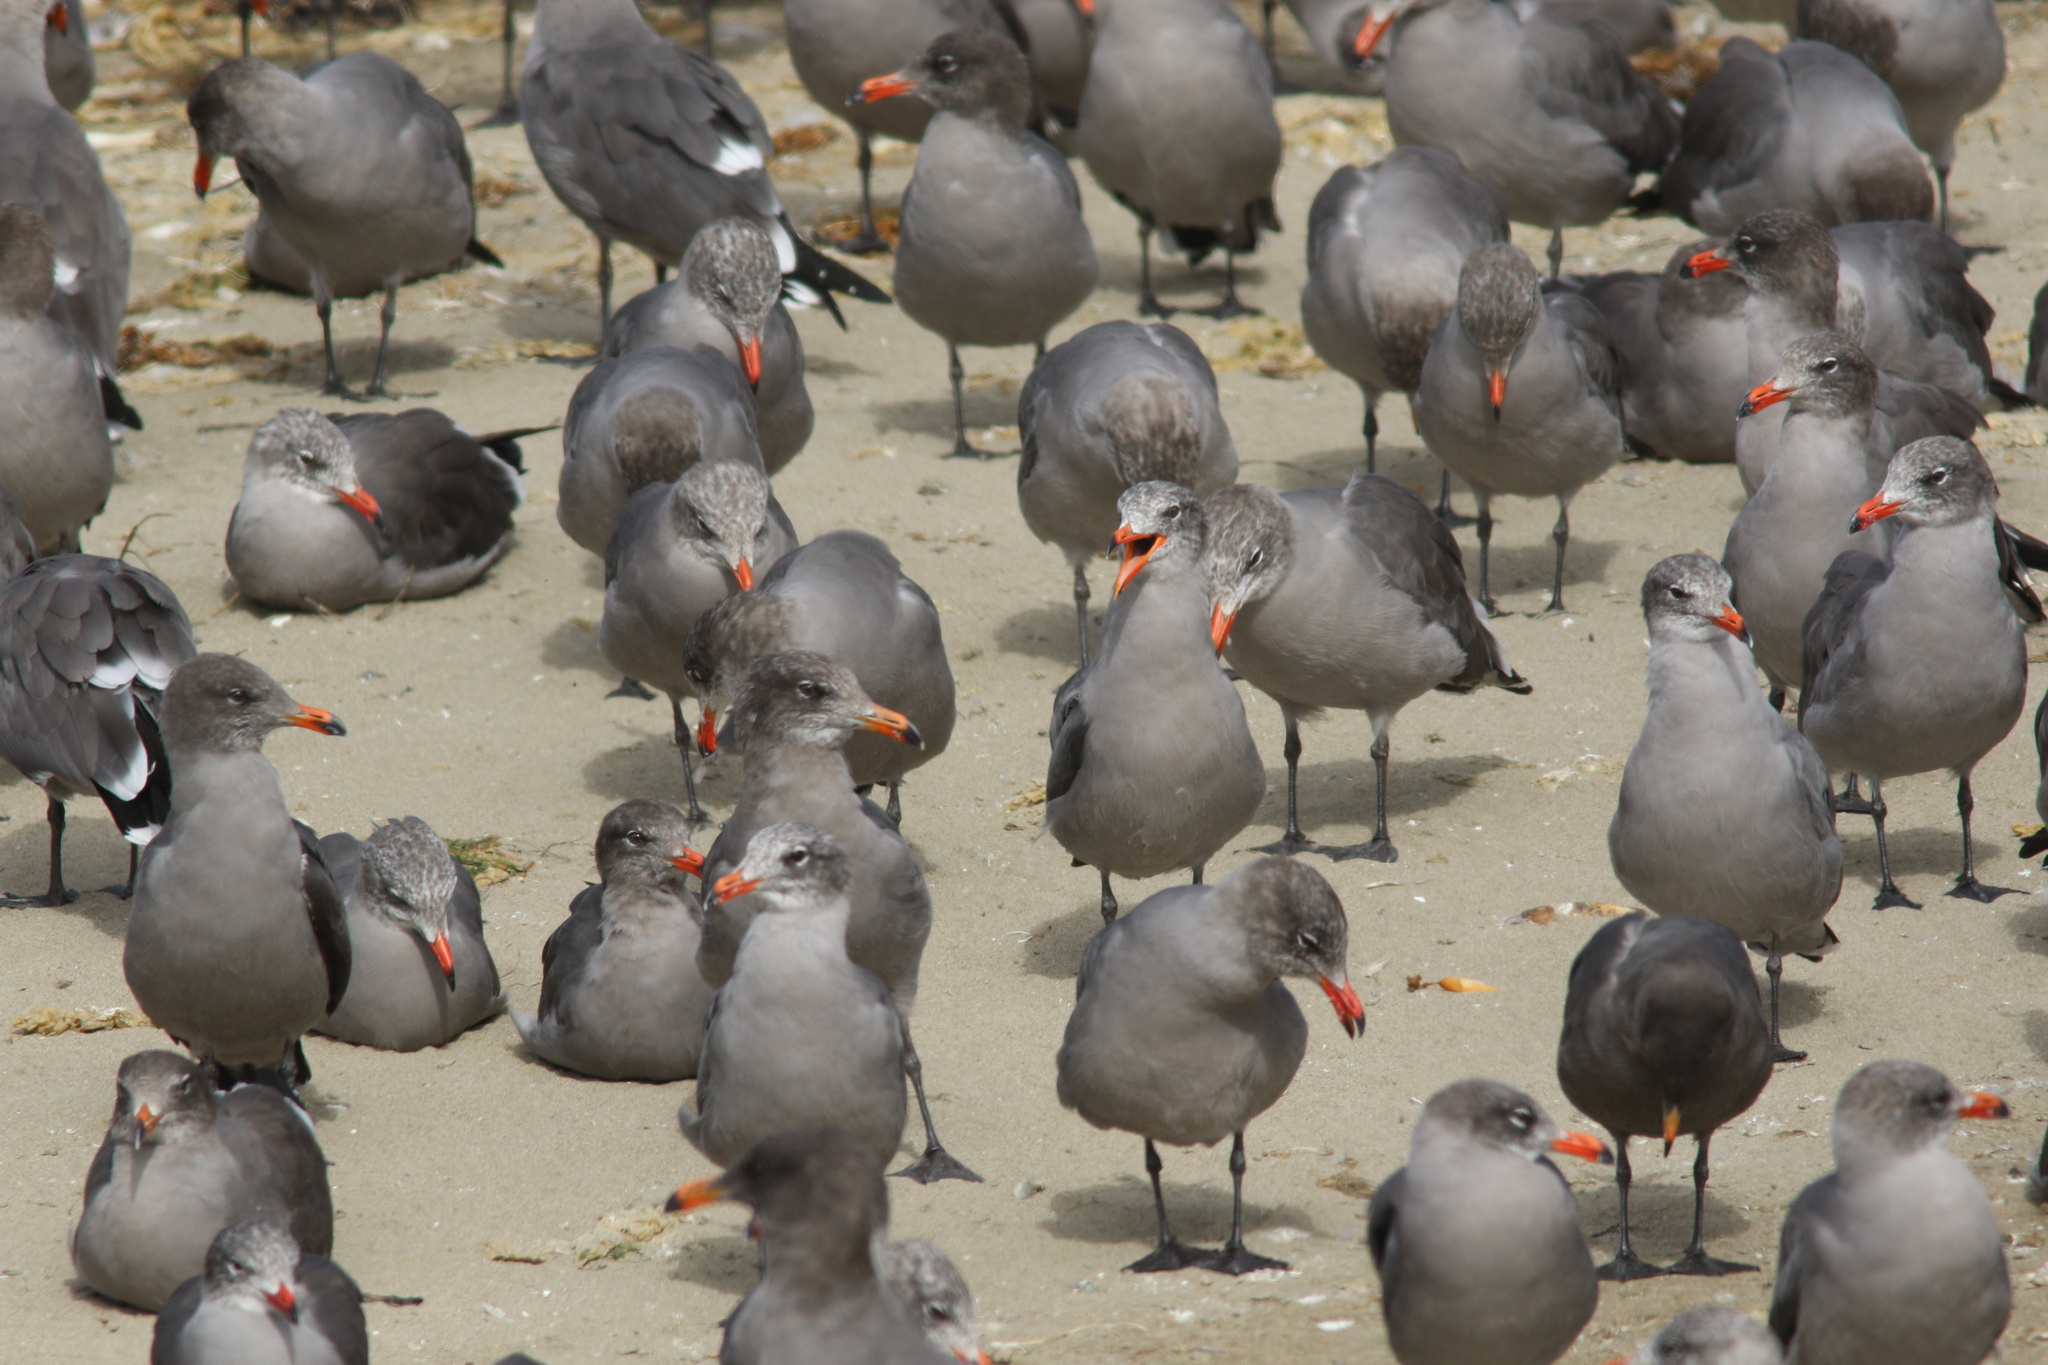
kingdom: Animalia
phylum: Chordata
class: Aves
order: Charadriiformes
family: Laridae
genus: Larus
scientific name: Larus heermanni
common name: Heermann's gull
